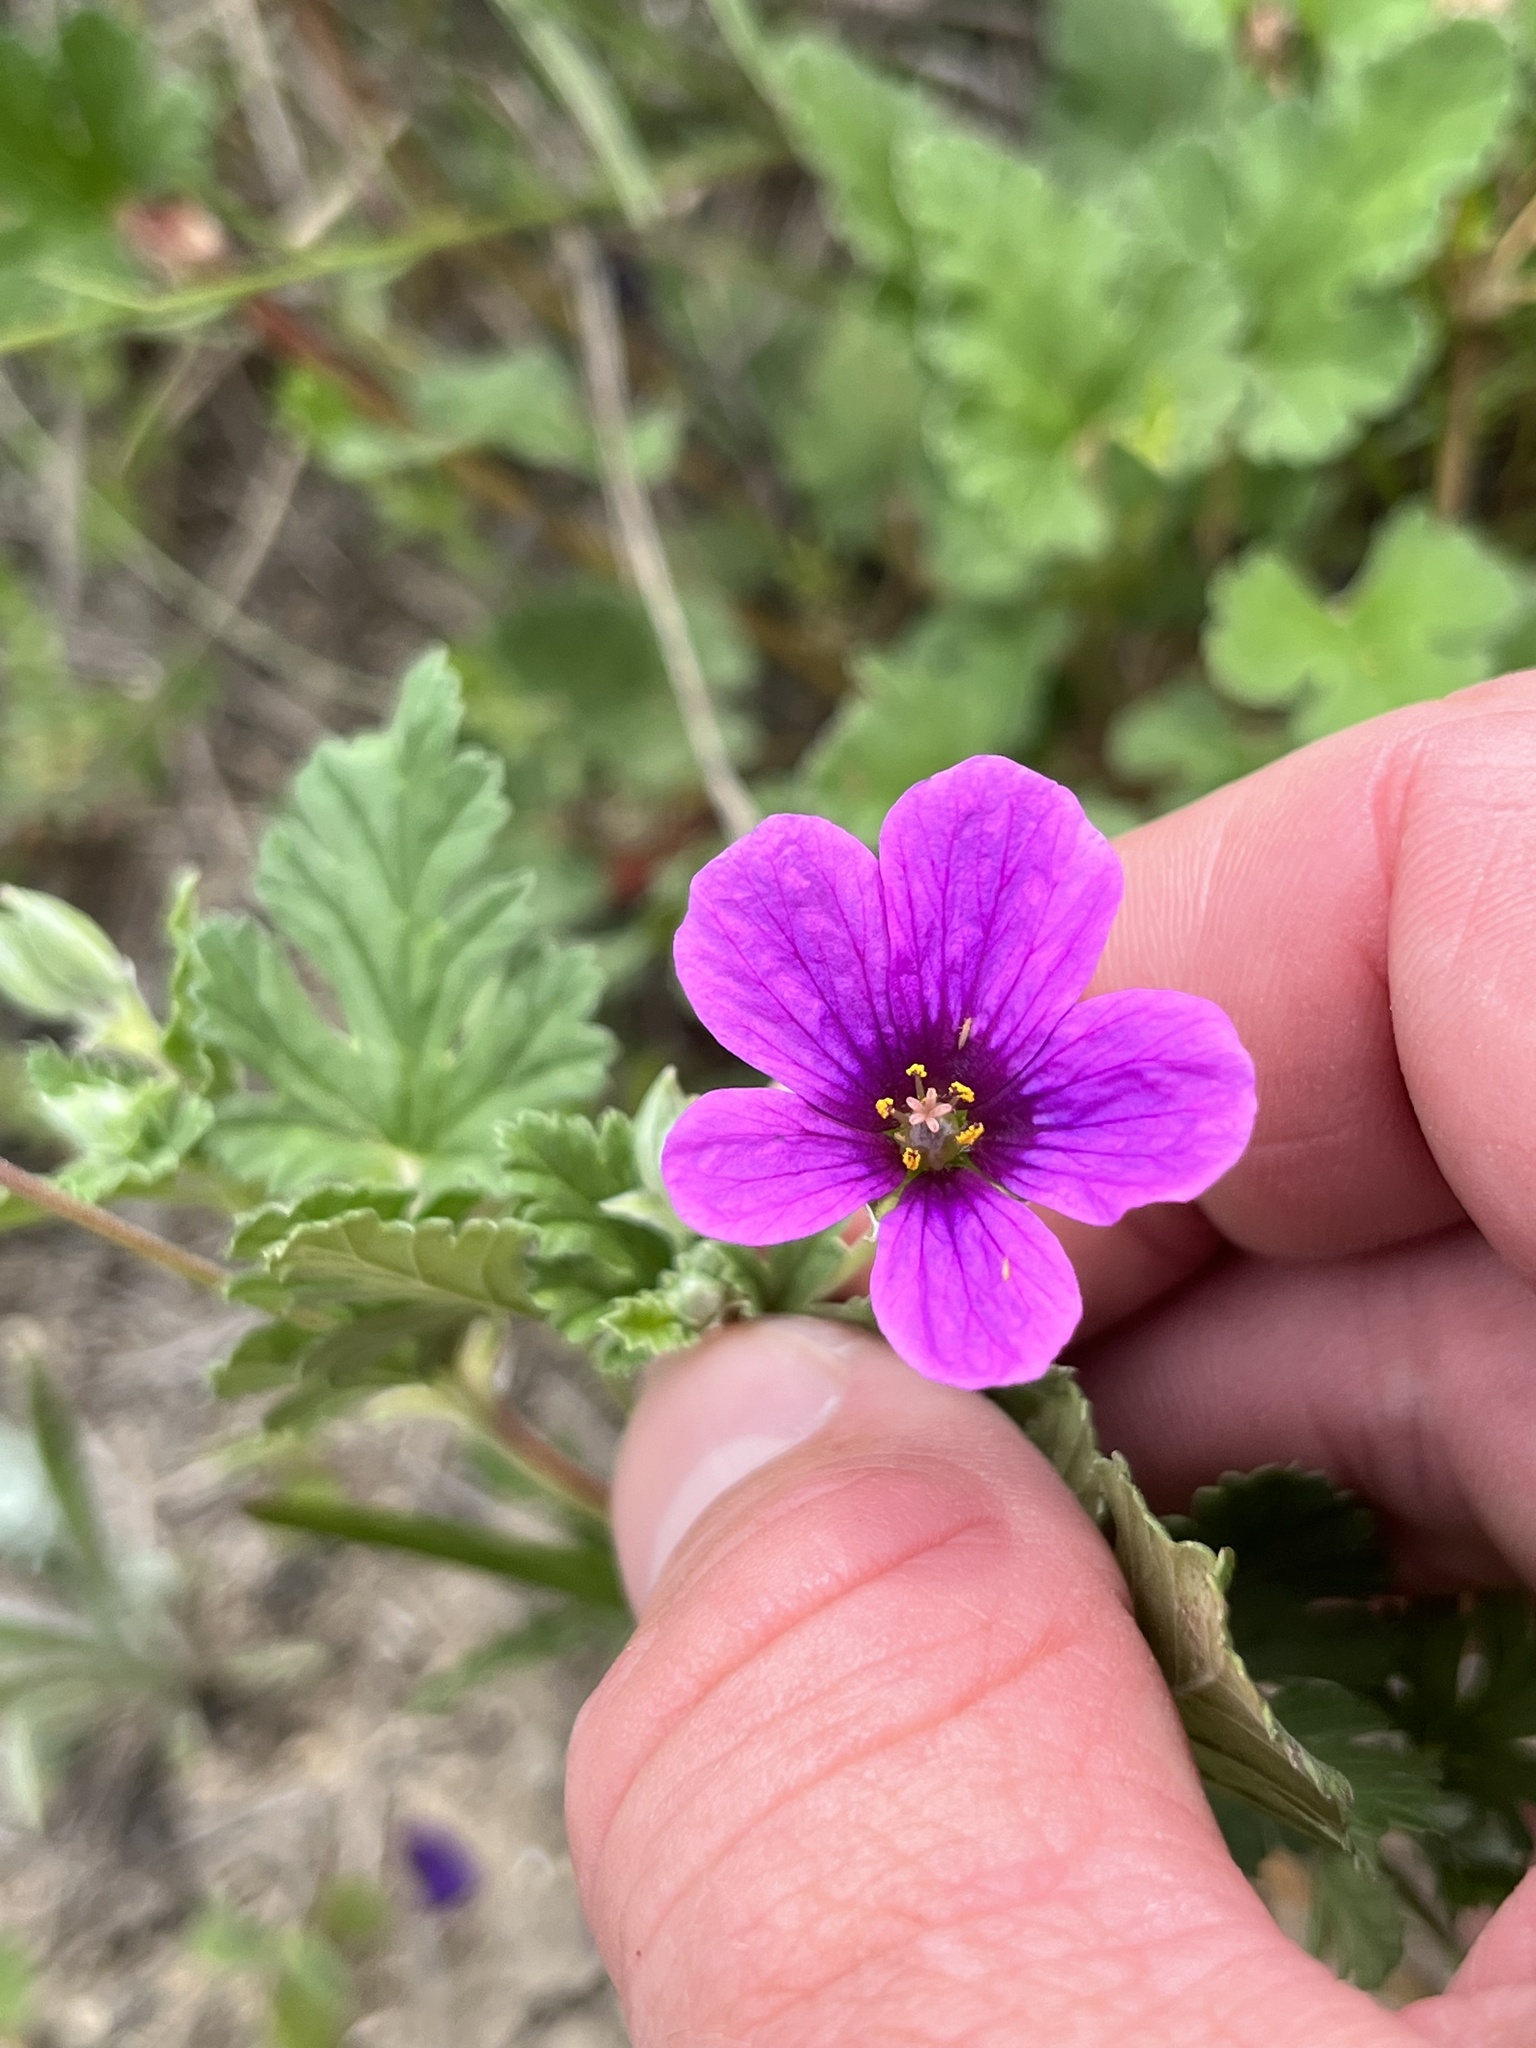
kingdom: Plantae
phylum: Tracheophyta
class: Magnoliopsida
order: Geraniales
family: Geraniaceae
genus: Erodium
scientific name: Erodium texanum
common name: Texas stork's-bill
